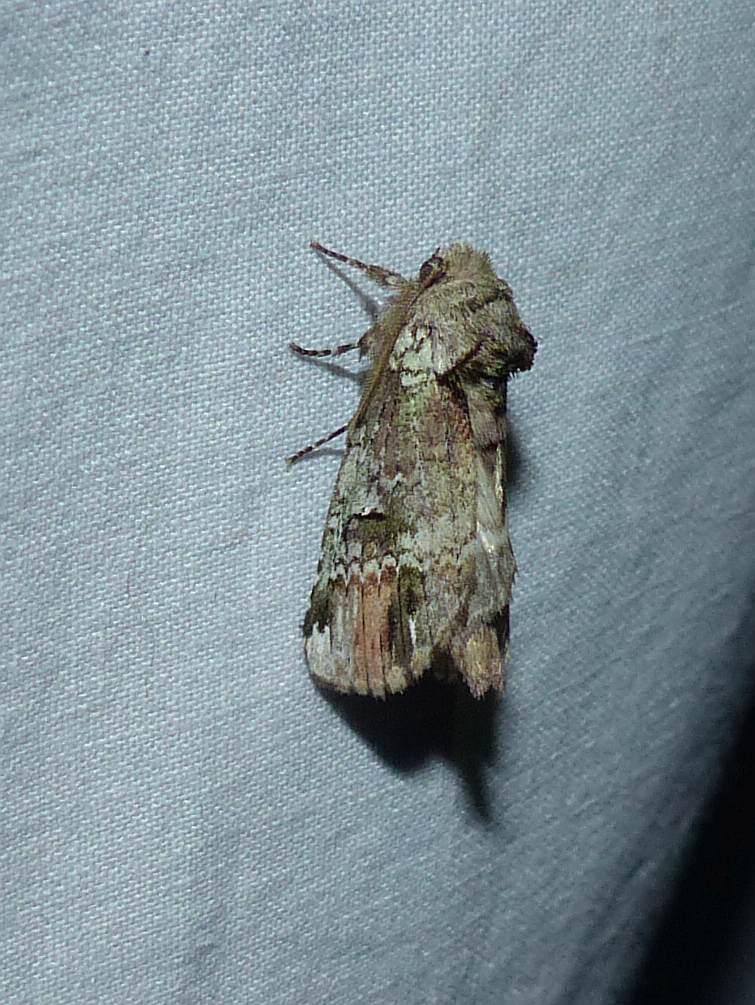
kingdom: Animalia
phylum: Arthropoda
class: Insecta
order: Lepidoptera
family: Notodontidae
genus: Schizura
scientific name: Schizura
